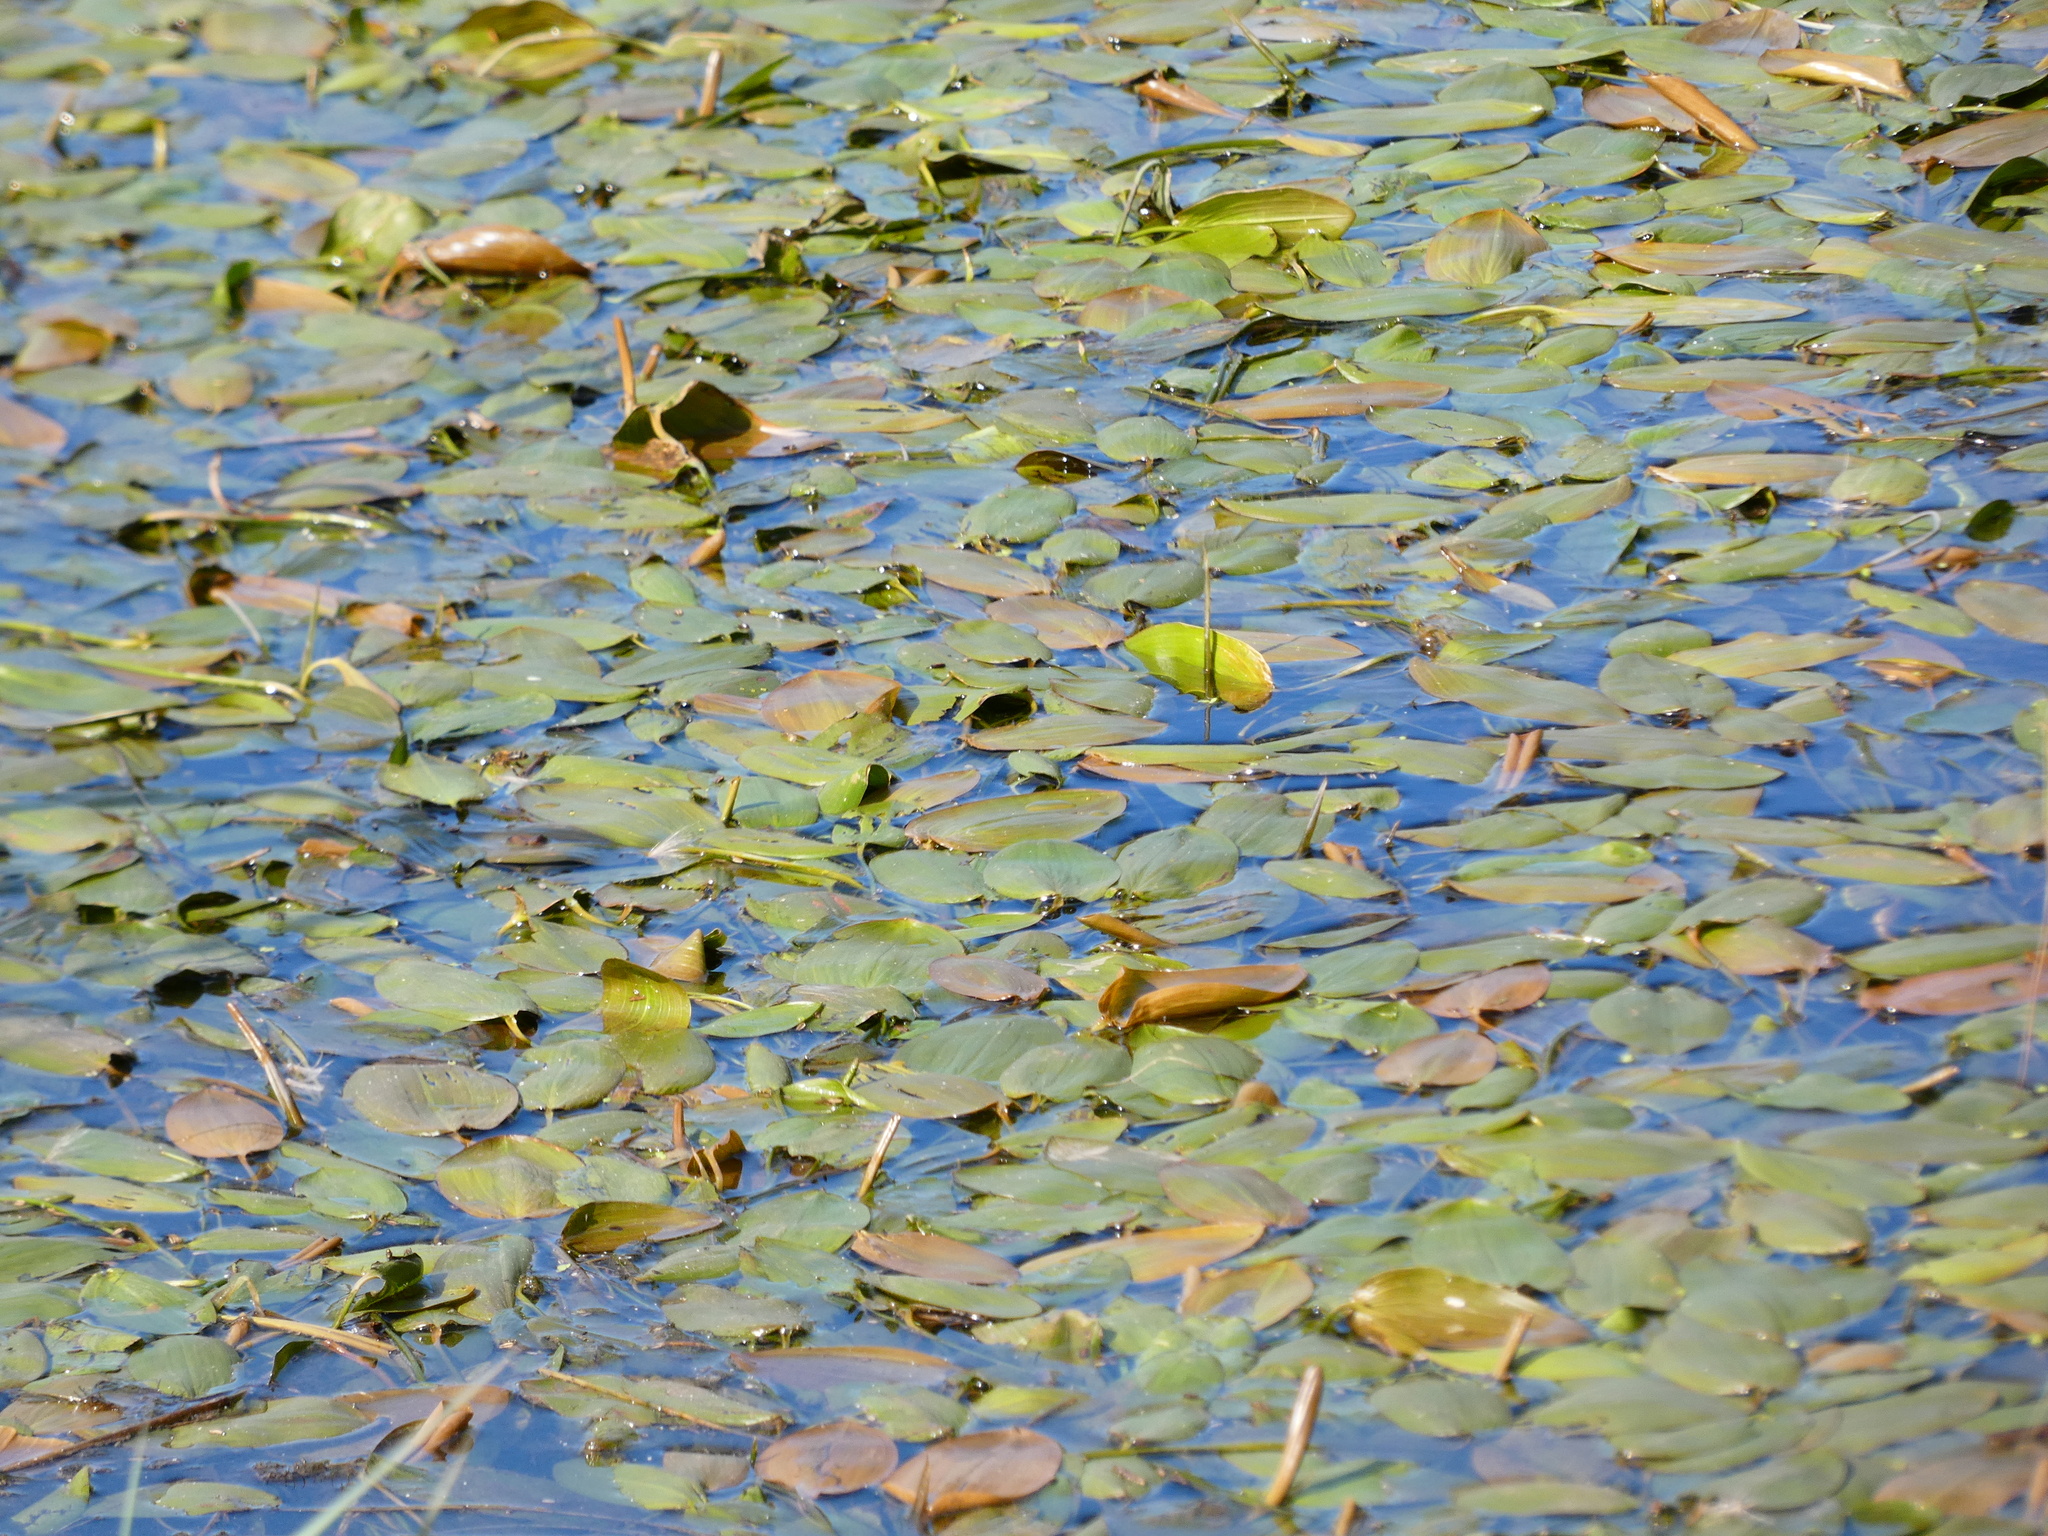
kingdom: Plantae
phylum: Tracheophyta
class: Liliopsida
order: Alismatales
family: Potamogetonaceae
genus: Potamogeton
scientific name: Potamogeton natans
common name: Broad-leaved pondweed
